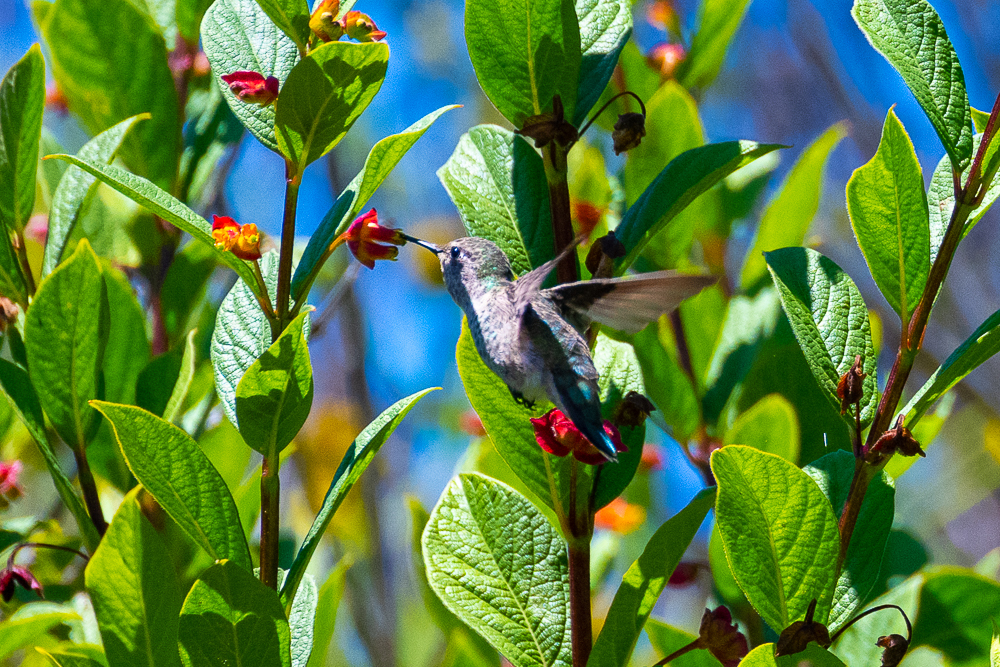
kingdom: Animalia
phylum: Chordata
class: Aves
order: Apodiformes
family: Trochilidae
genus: Calypte
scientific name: Calypte anna
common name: Anna's hummingbird
